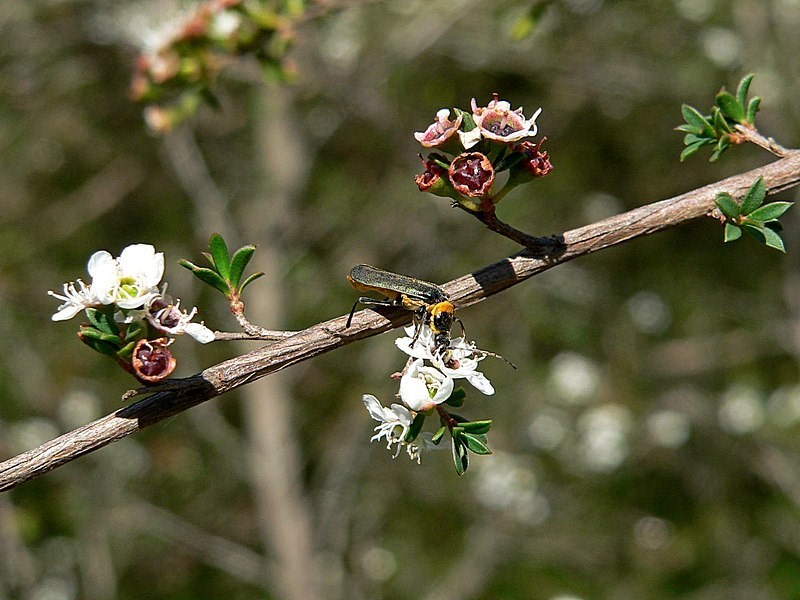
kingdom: Animalia
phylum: Arthropoda
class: Insecta
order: Coleoptera
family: Cantharidae
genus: Chauliognathus
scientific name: Chauliognathus
